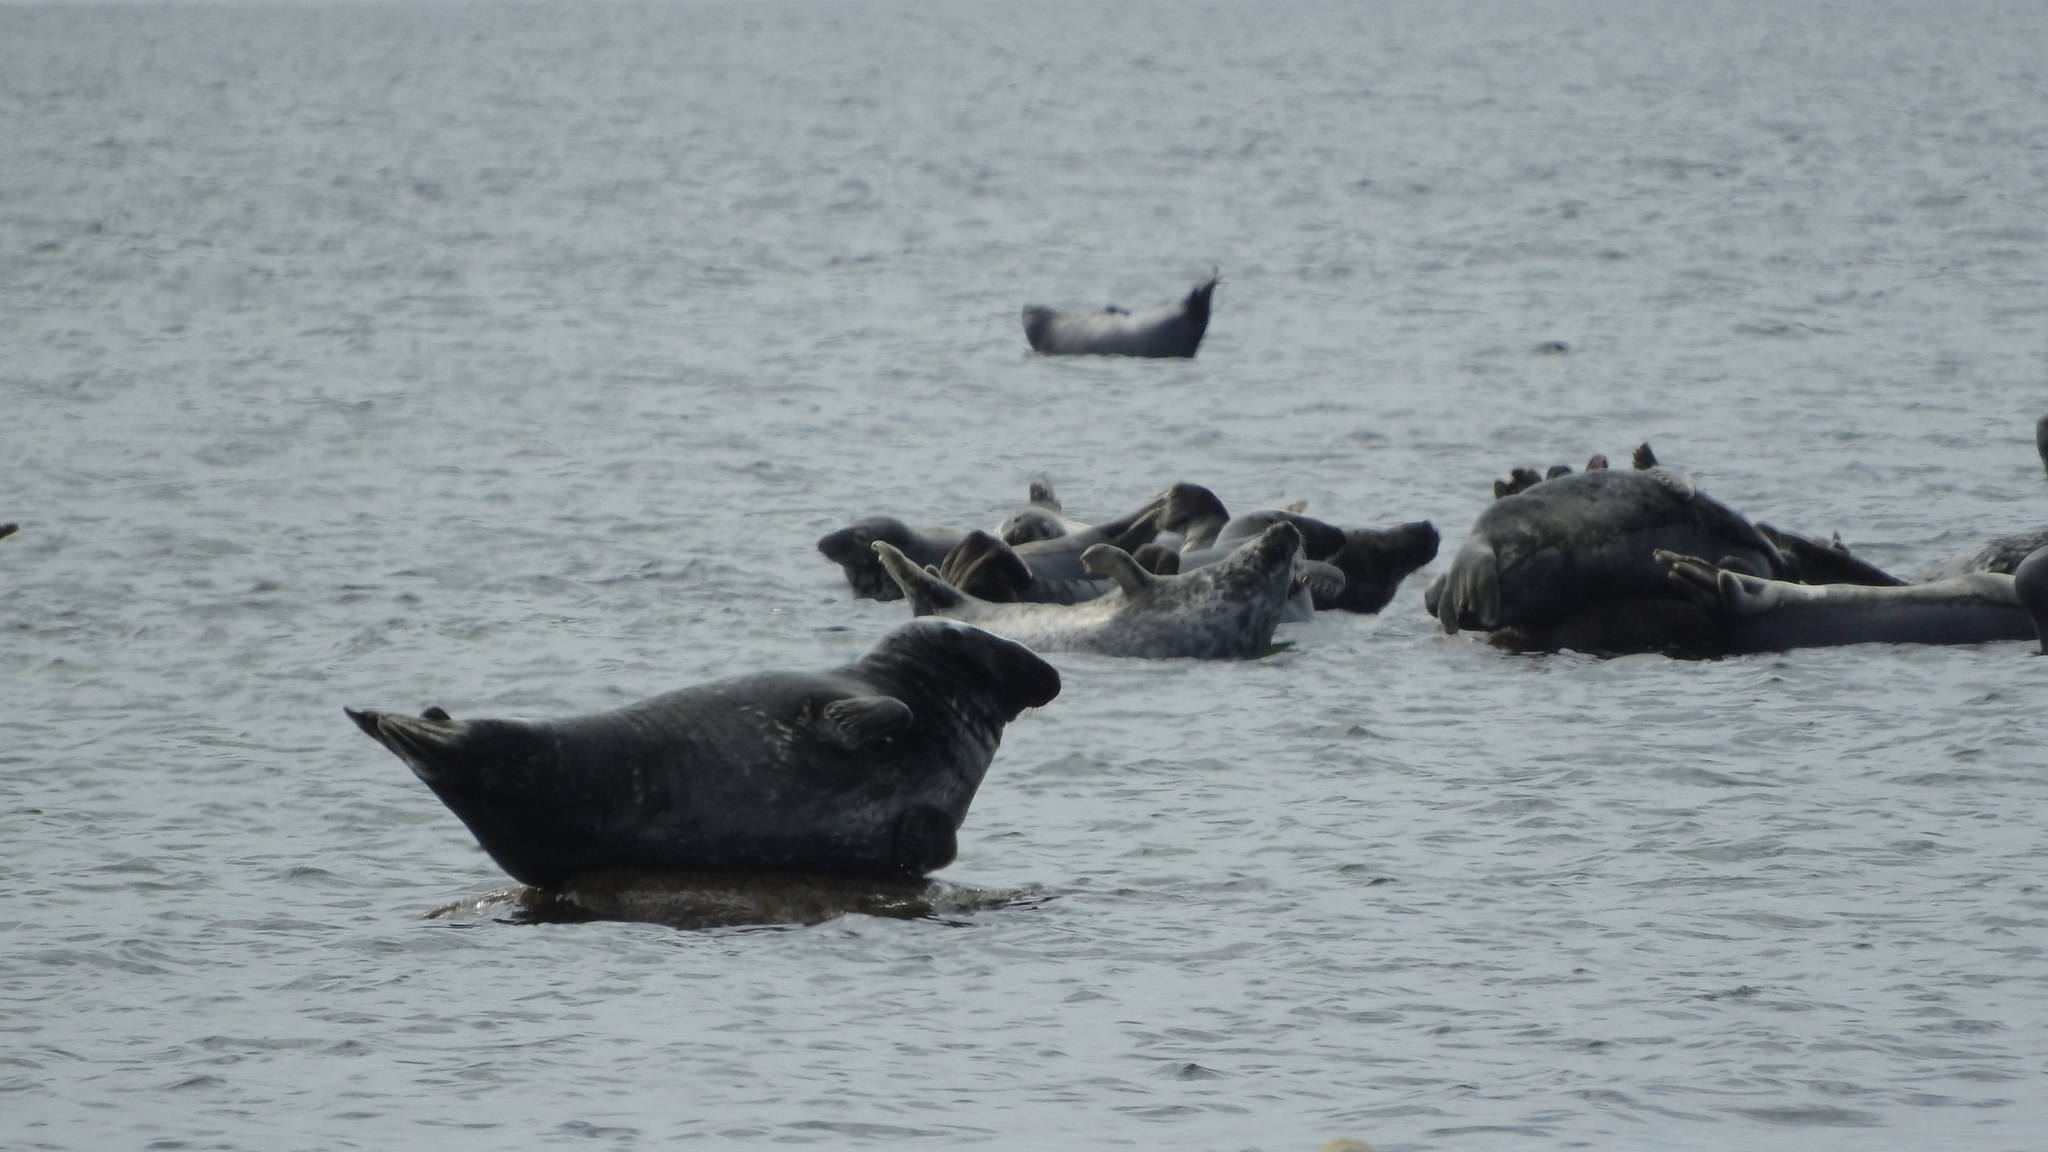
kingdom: Animalia
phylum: Chordata
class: Mammalia
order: Carnivora
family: Phocidae
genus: Halichoerus
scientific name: Halichoerus grypus
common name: Grey seal
